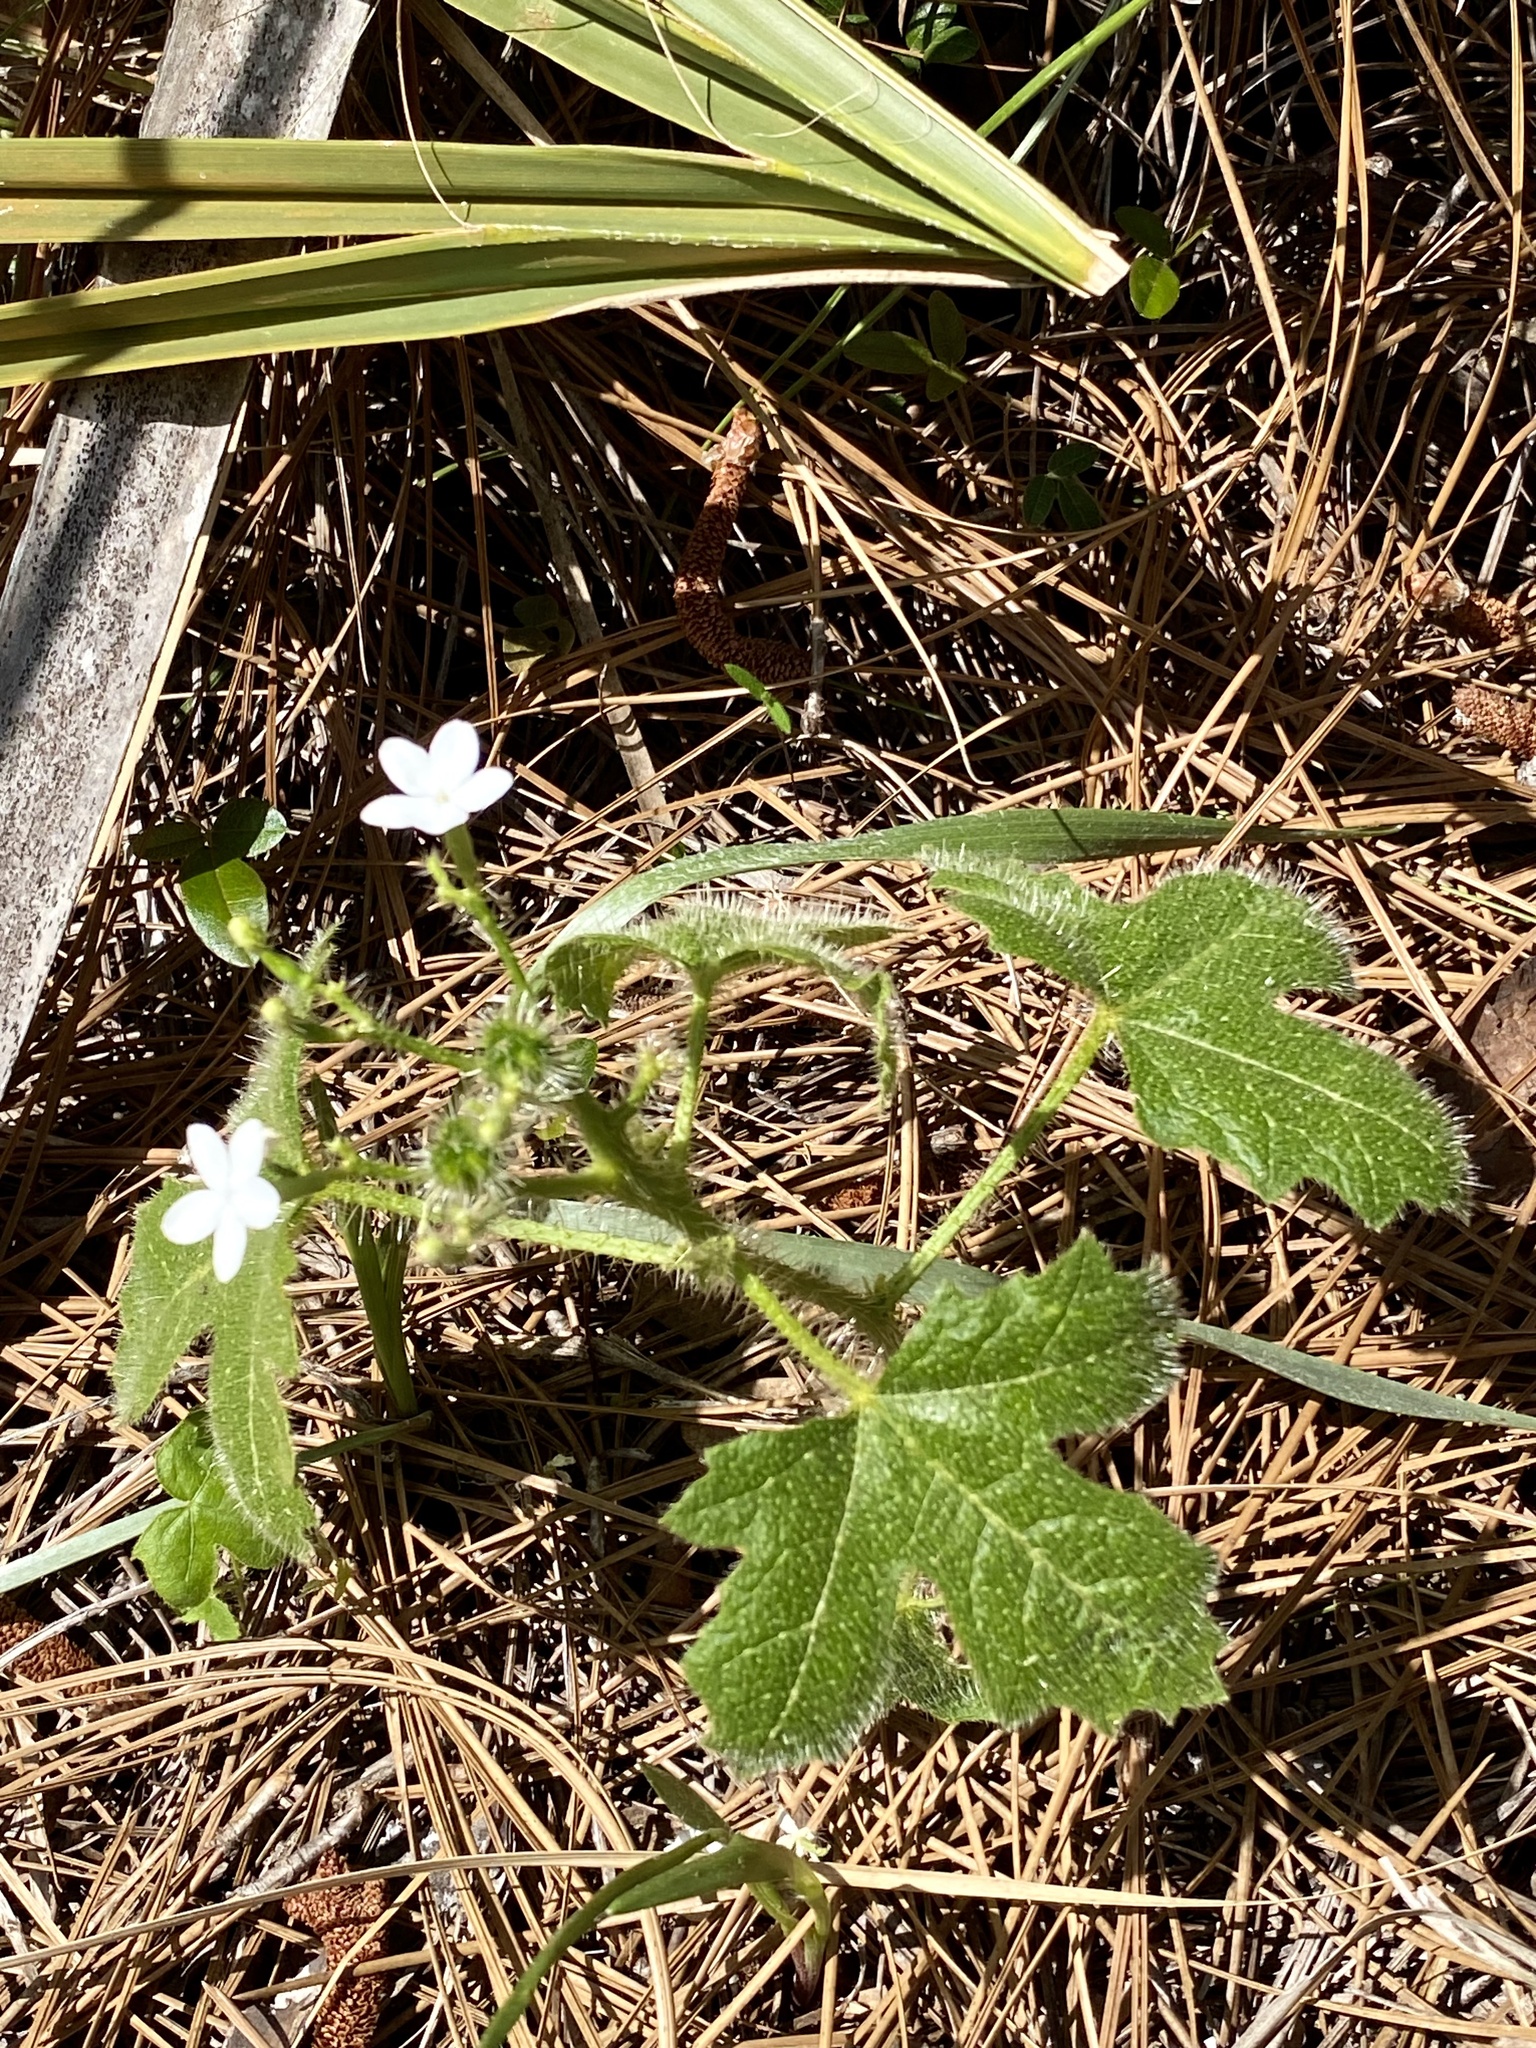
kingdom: Plantae
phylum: Tracheophyta
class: Magnoliopsida
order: Malpighiales
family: Euphorbiaceae
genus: Cnidoscolus
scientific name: Cnidoscolus stimulosus
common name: Bull-nettle
